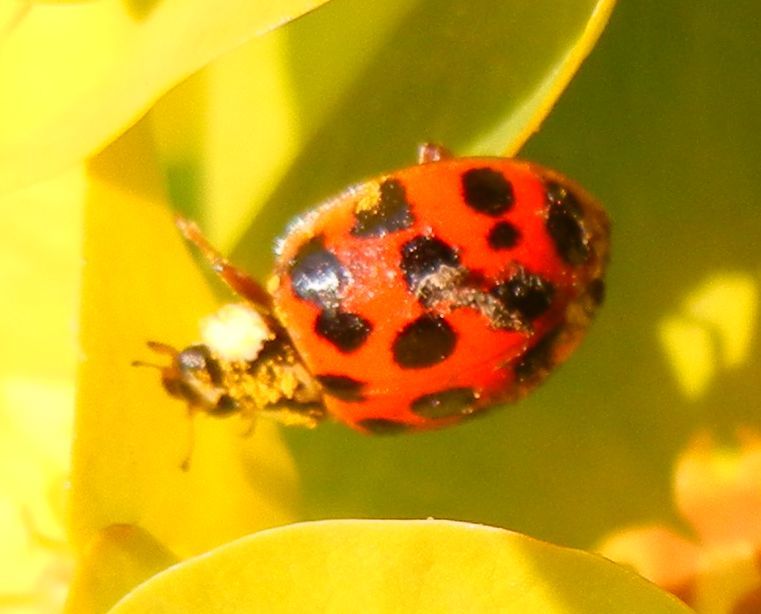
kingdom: Animalia
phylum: Arthropoda
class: Insecta
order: Coleoptera
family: Coccinellidae
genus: Harmonia
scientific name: Harmonia axyridis
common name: Harlequin ladybird
